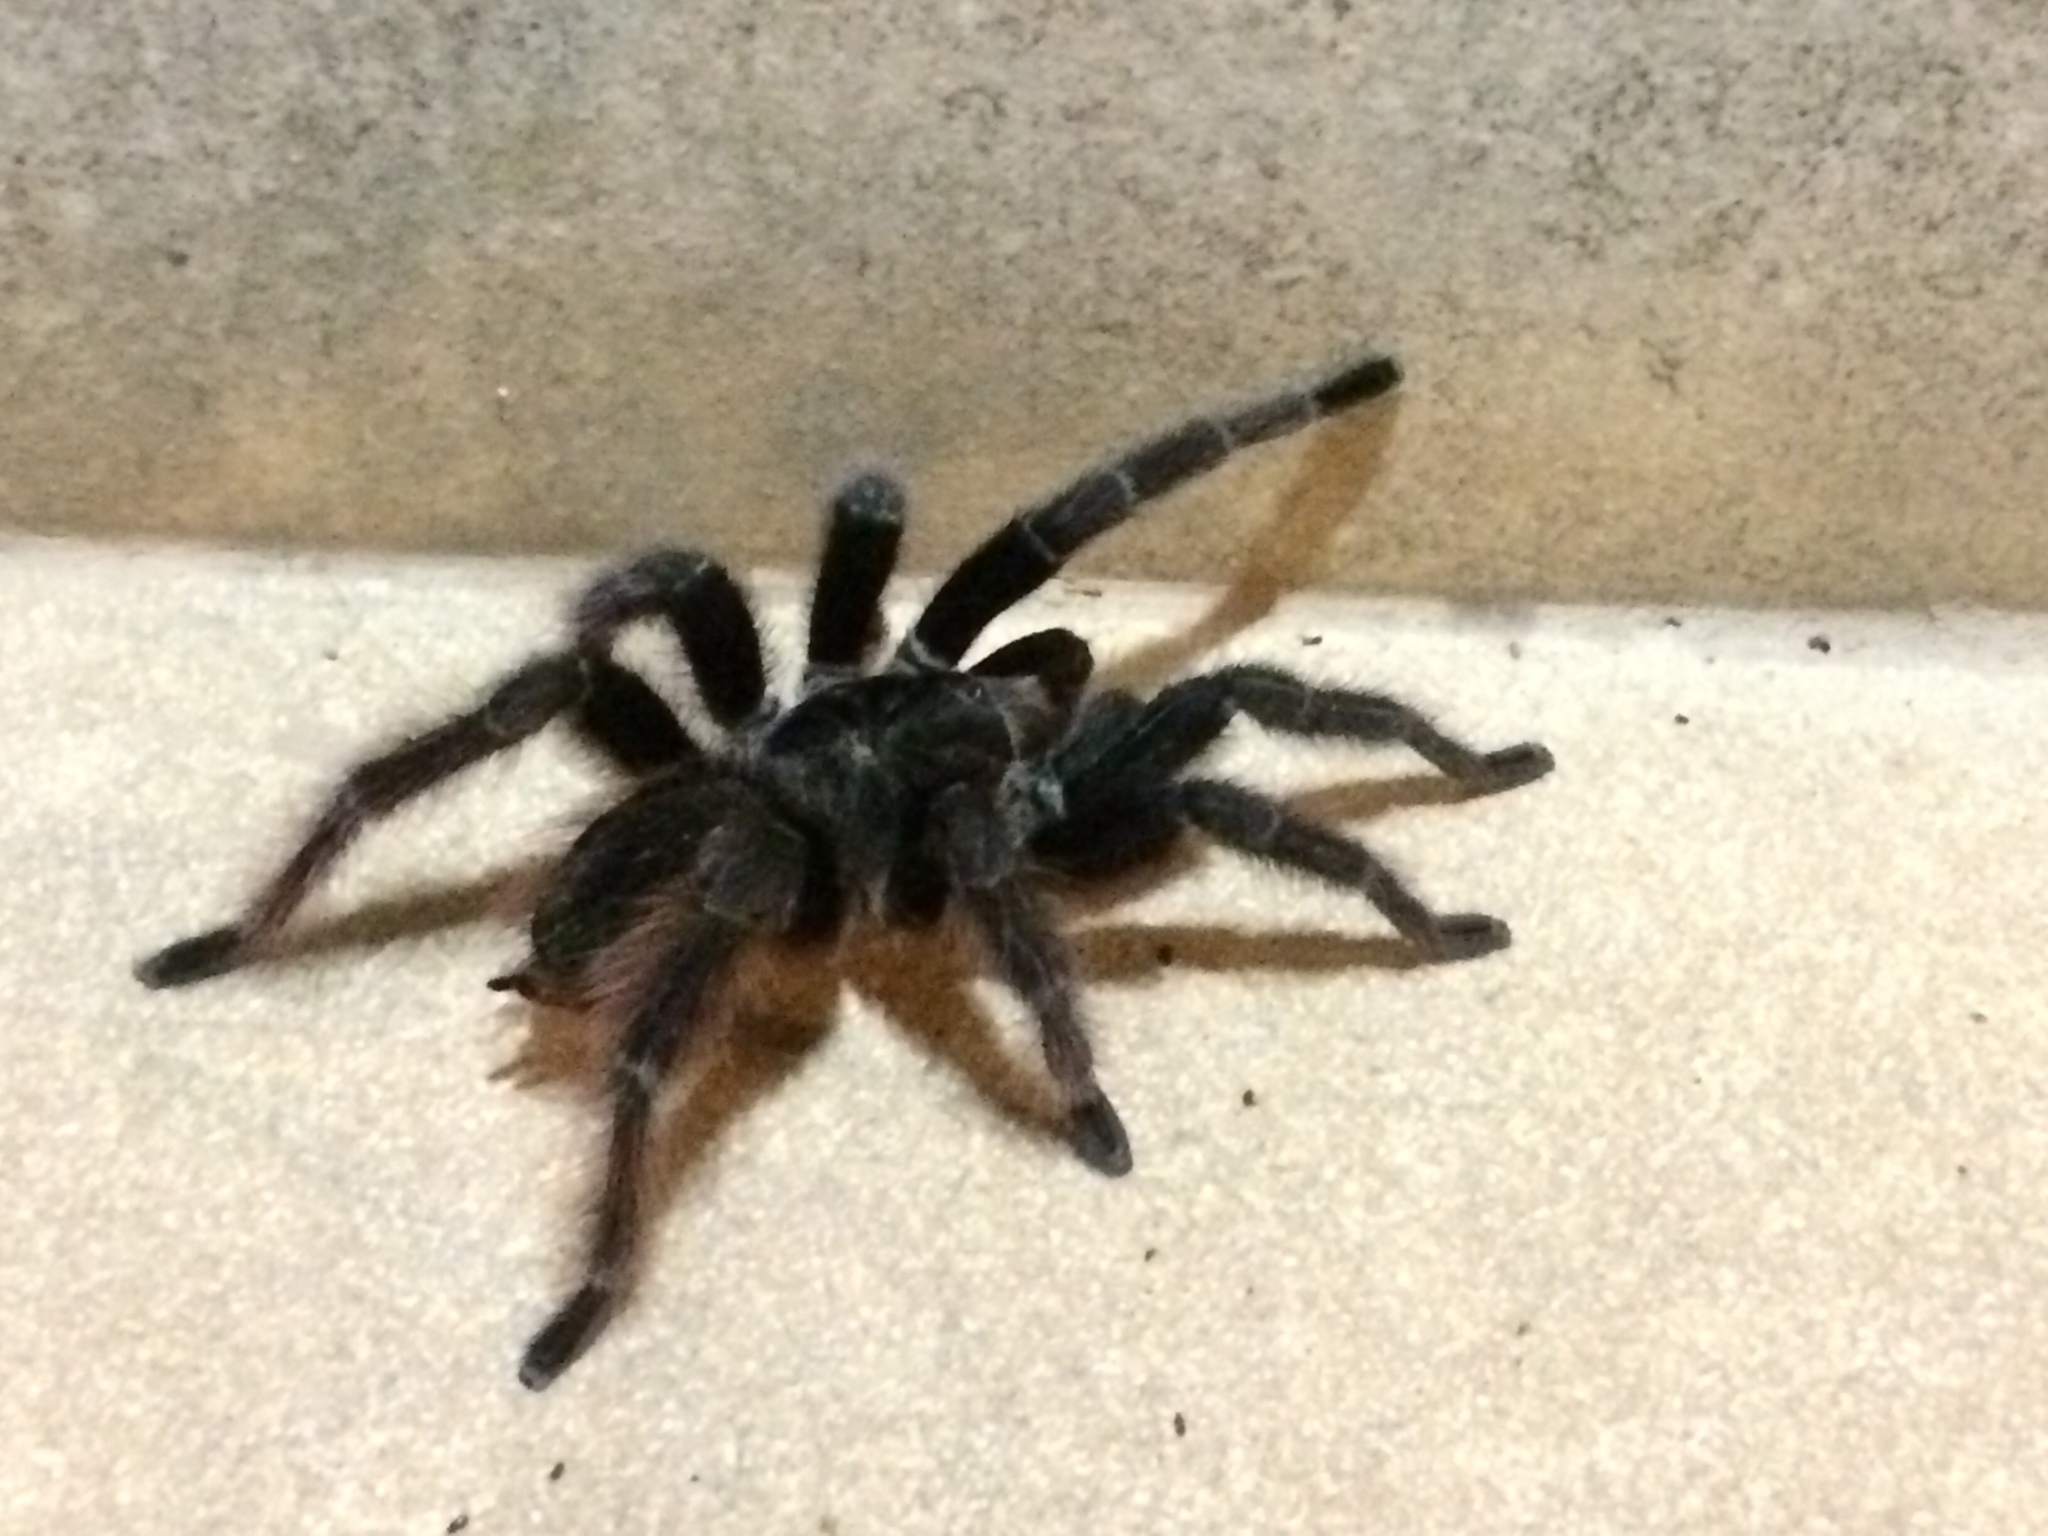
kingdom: Animalia
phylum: Arthropoda
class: Arachnida
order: Araneae
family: Theraphosidae
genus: Nhandu
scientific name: Nhandu carapoensis
